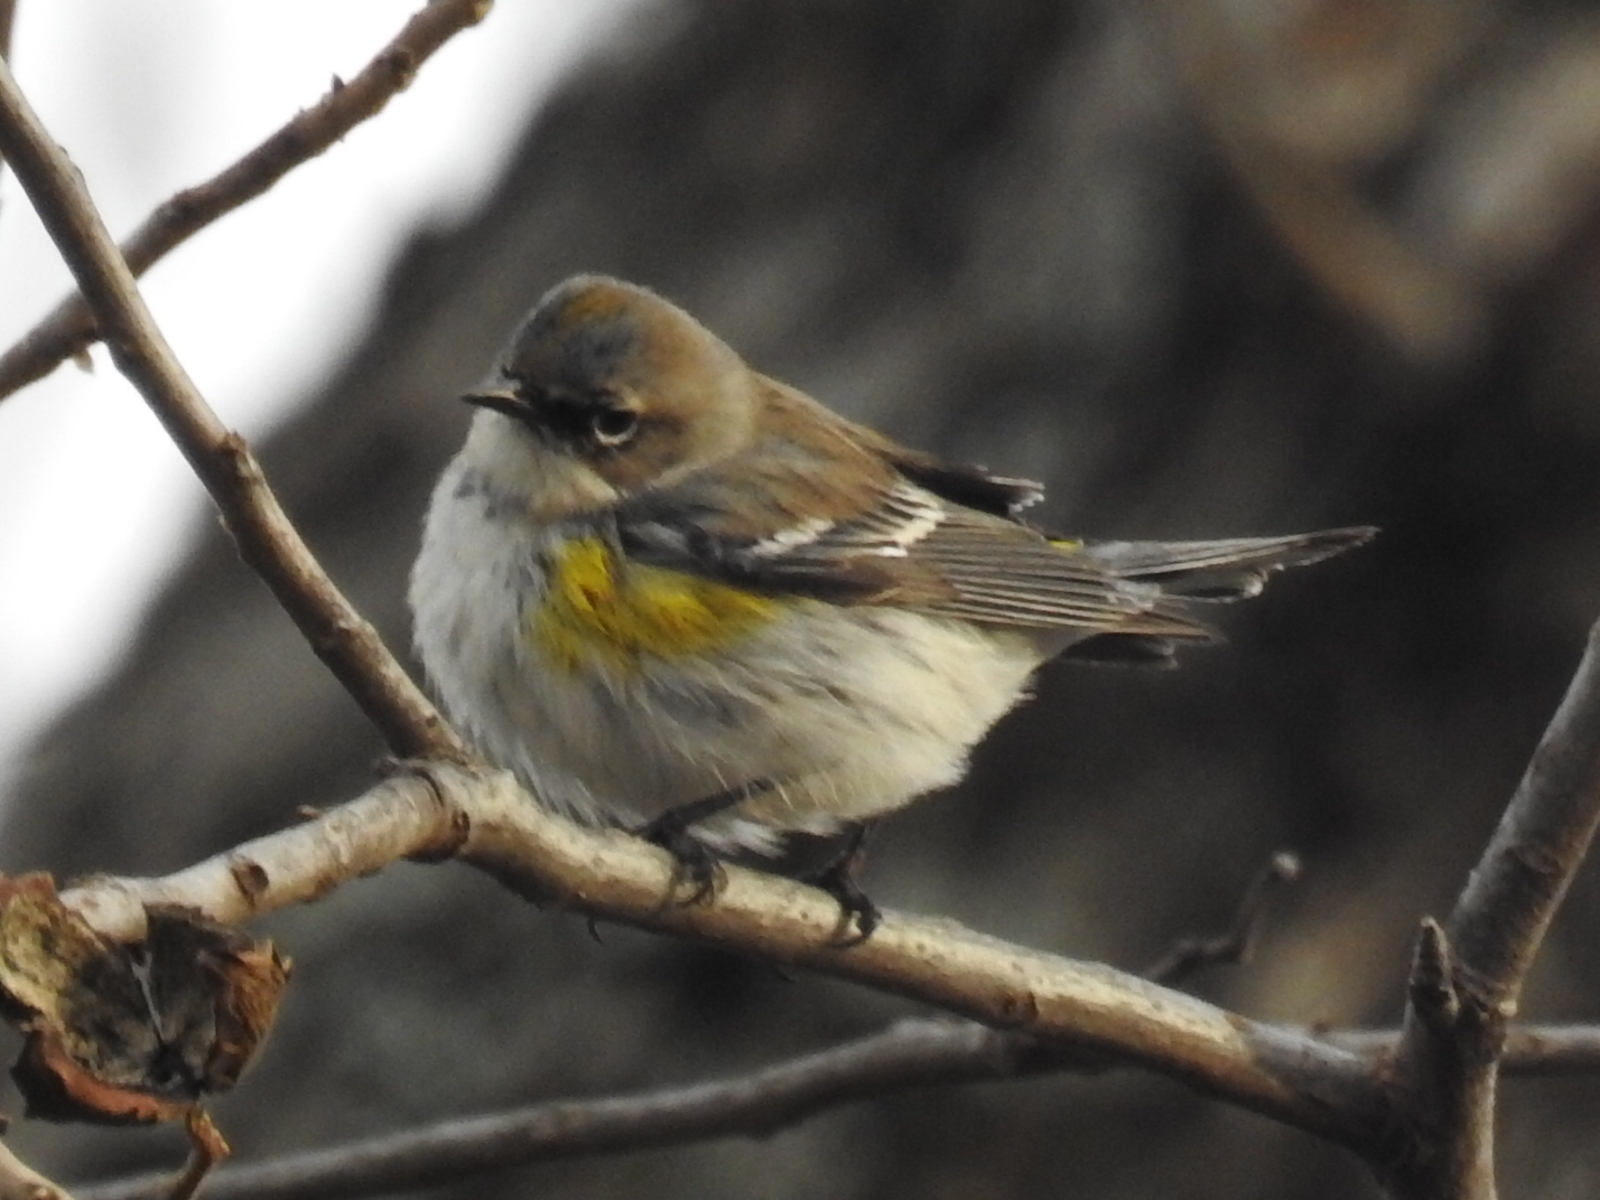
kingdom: Animalia
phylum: Chordata
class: Aves
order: Passeriformes
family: Parulidae
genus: Setophaga
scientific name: Setophaga coronata
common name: Myrtle warbler
